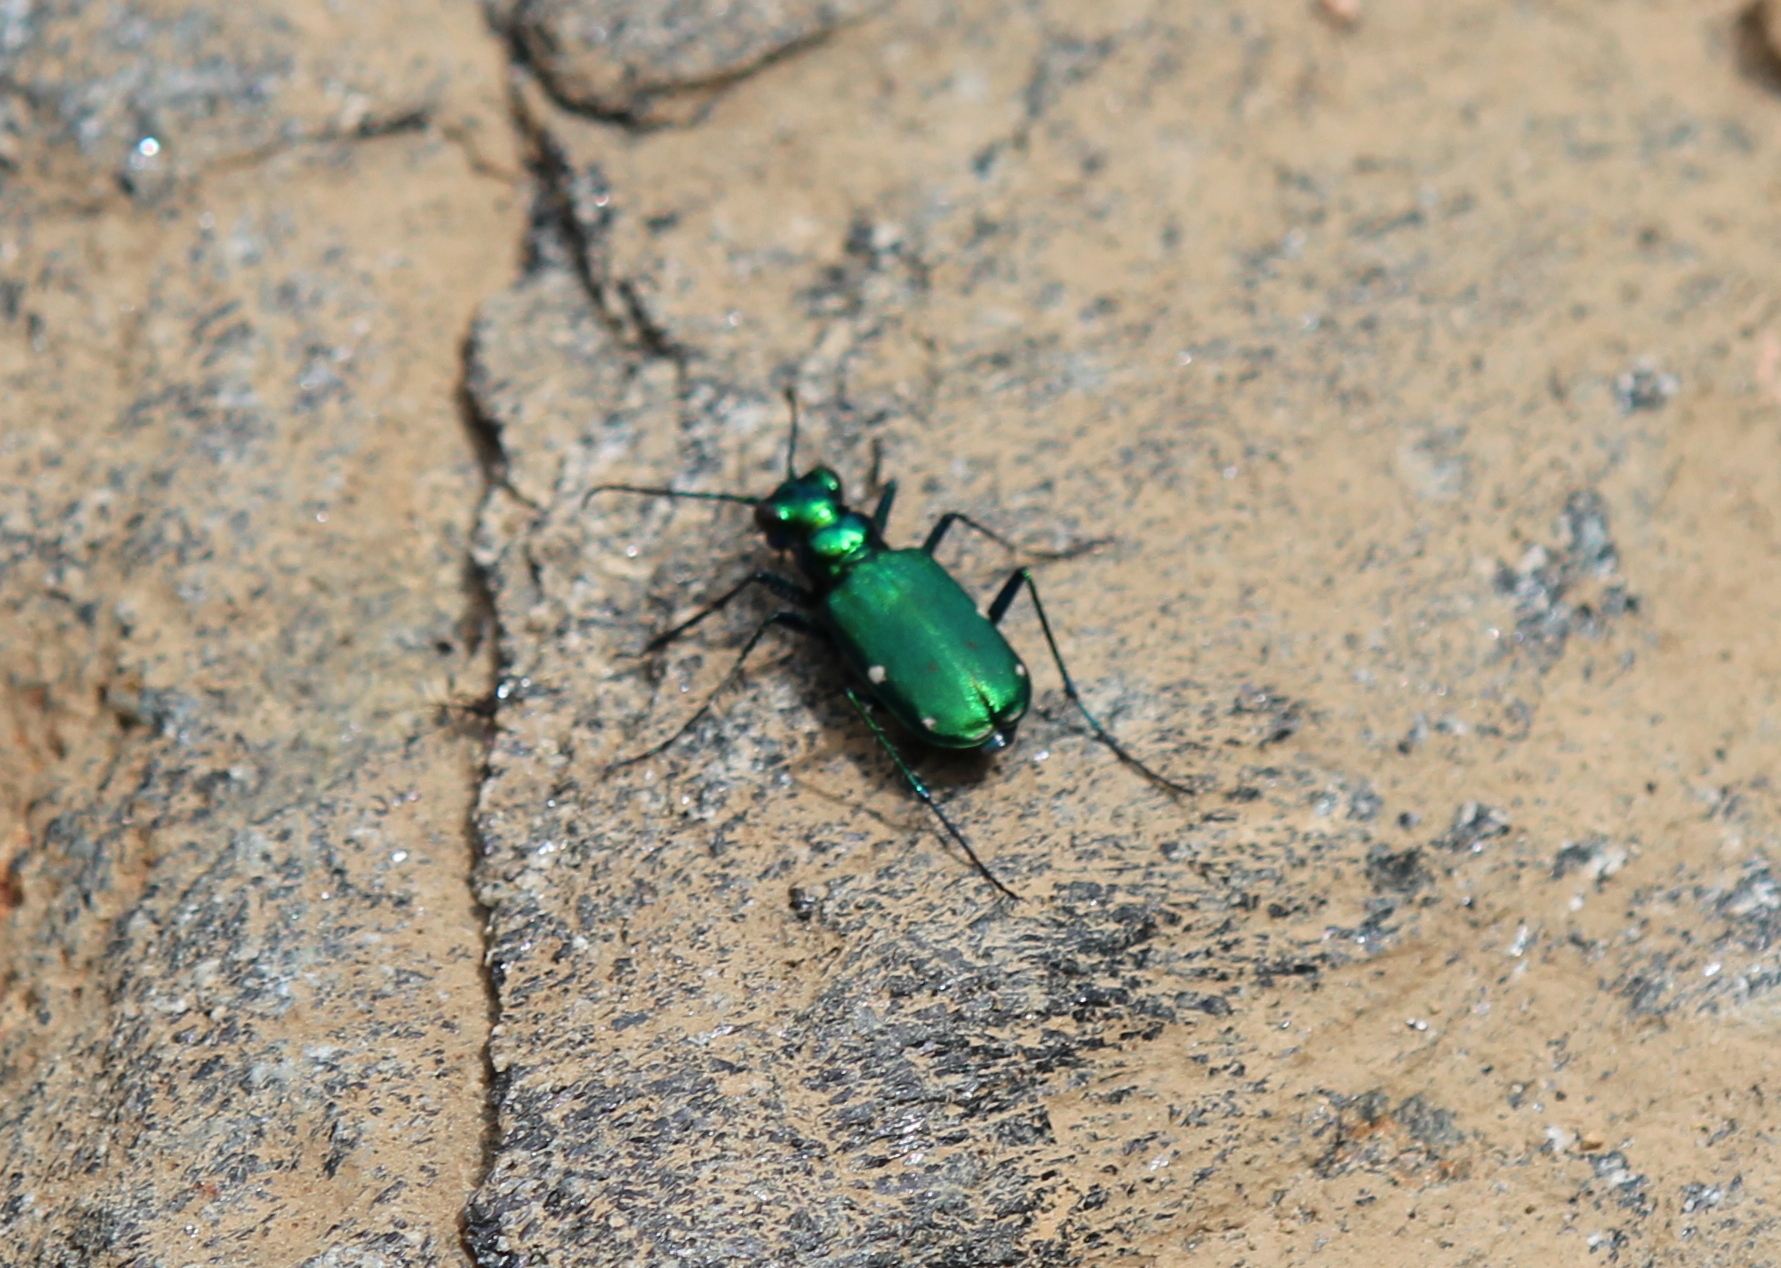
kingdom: Animalia
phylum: Arthropoda
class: Insecta
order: Coleoptera
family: Carabidae
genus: Cicindela
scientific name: Cicindela sexguttata
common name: Six-spotted tiger beetle
